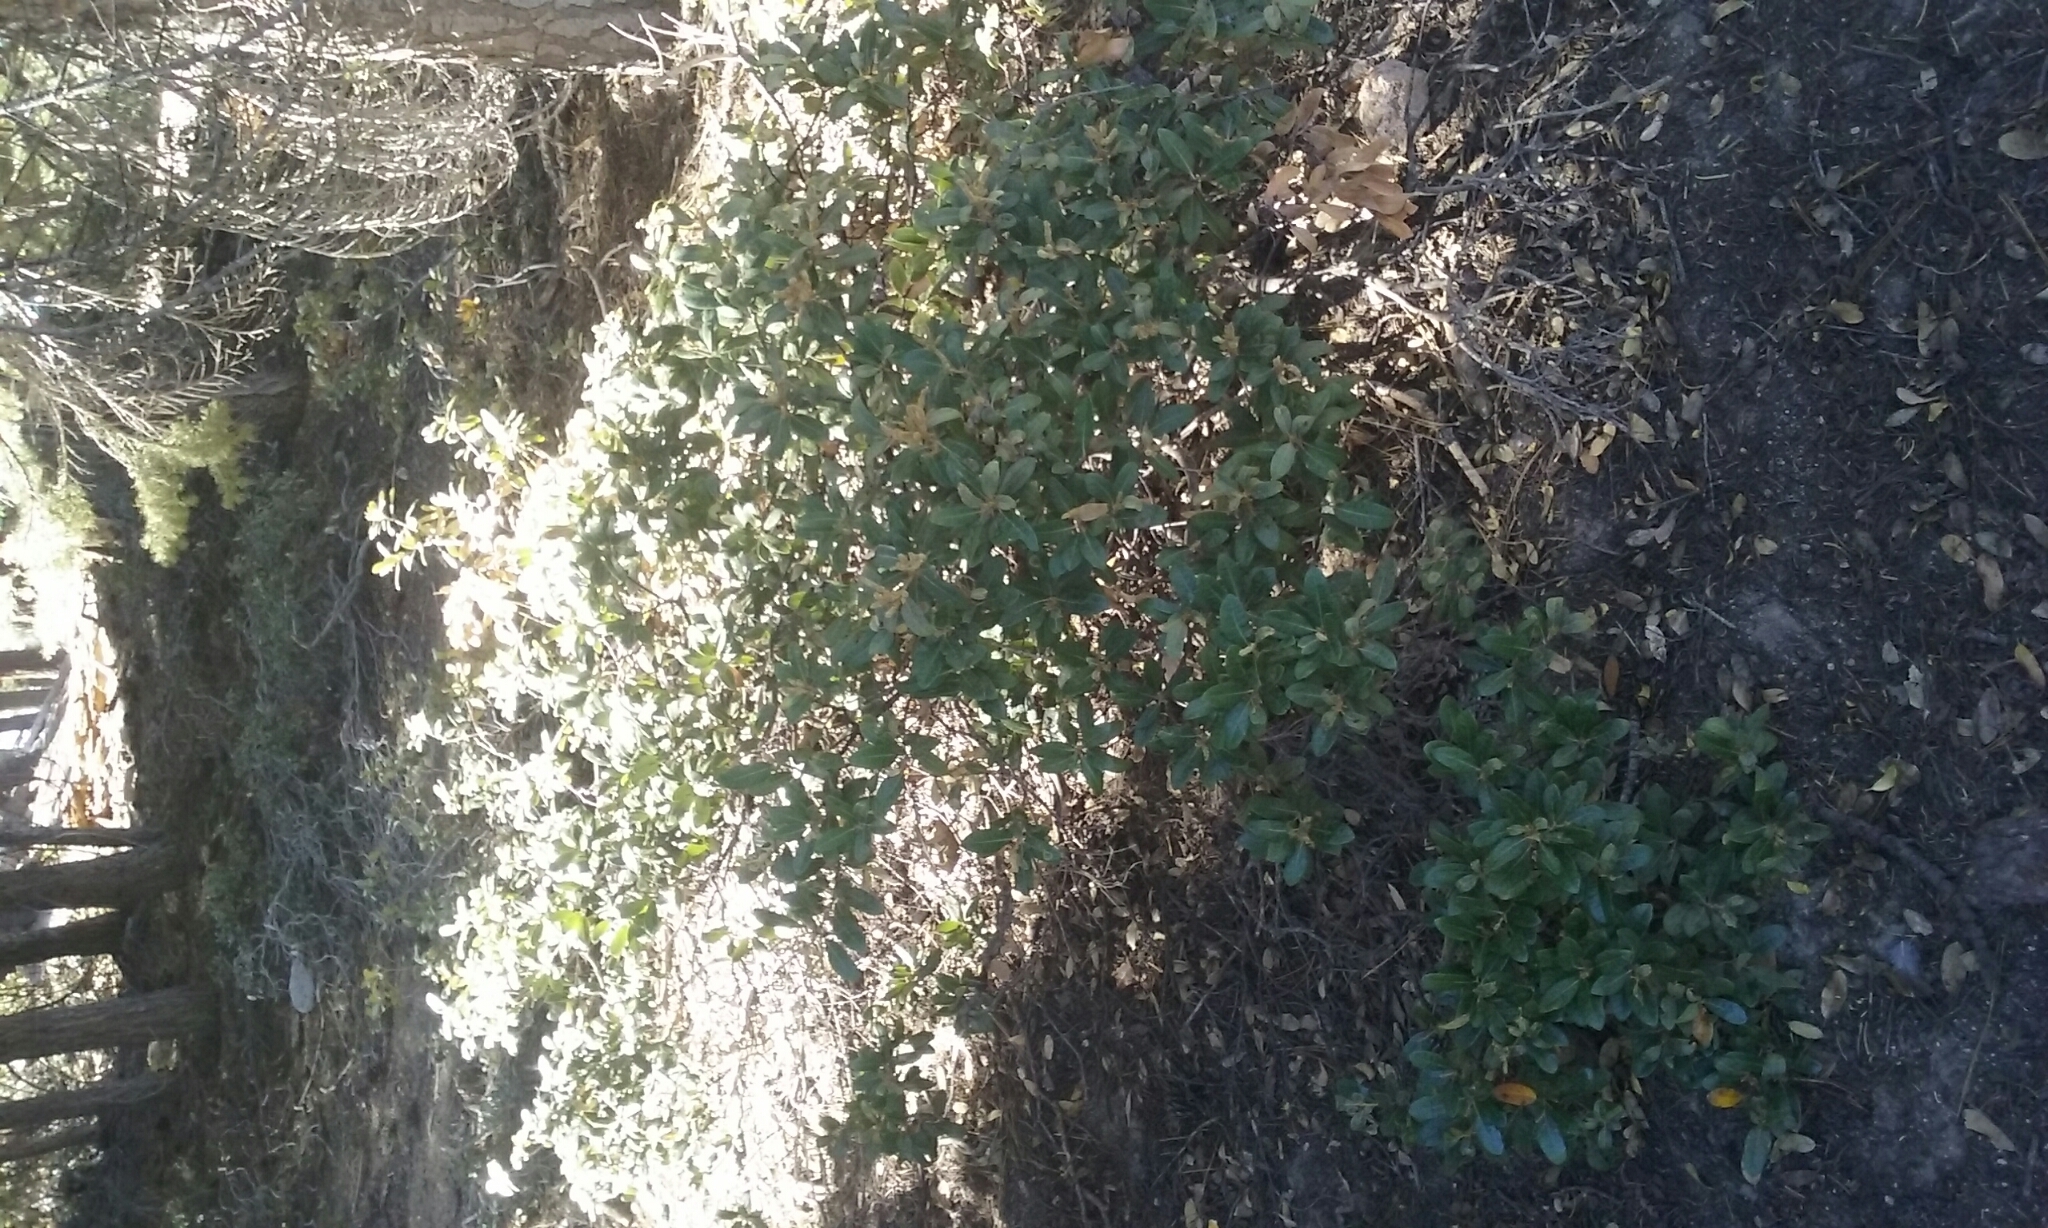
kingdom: Plantae
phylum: Tracheophyta
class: Magnoliopsida
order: Fagales
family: Fagaceae
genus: Chrysolepis
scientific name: Chrysolepis sempervirens
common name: Bush chinquapin
